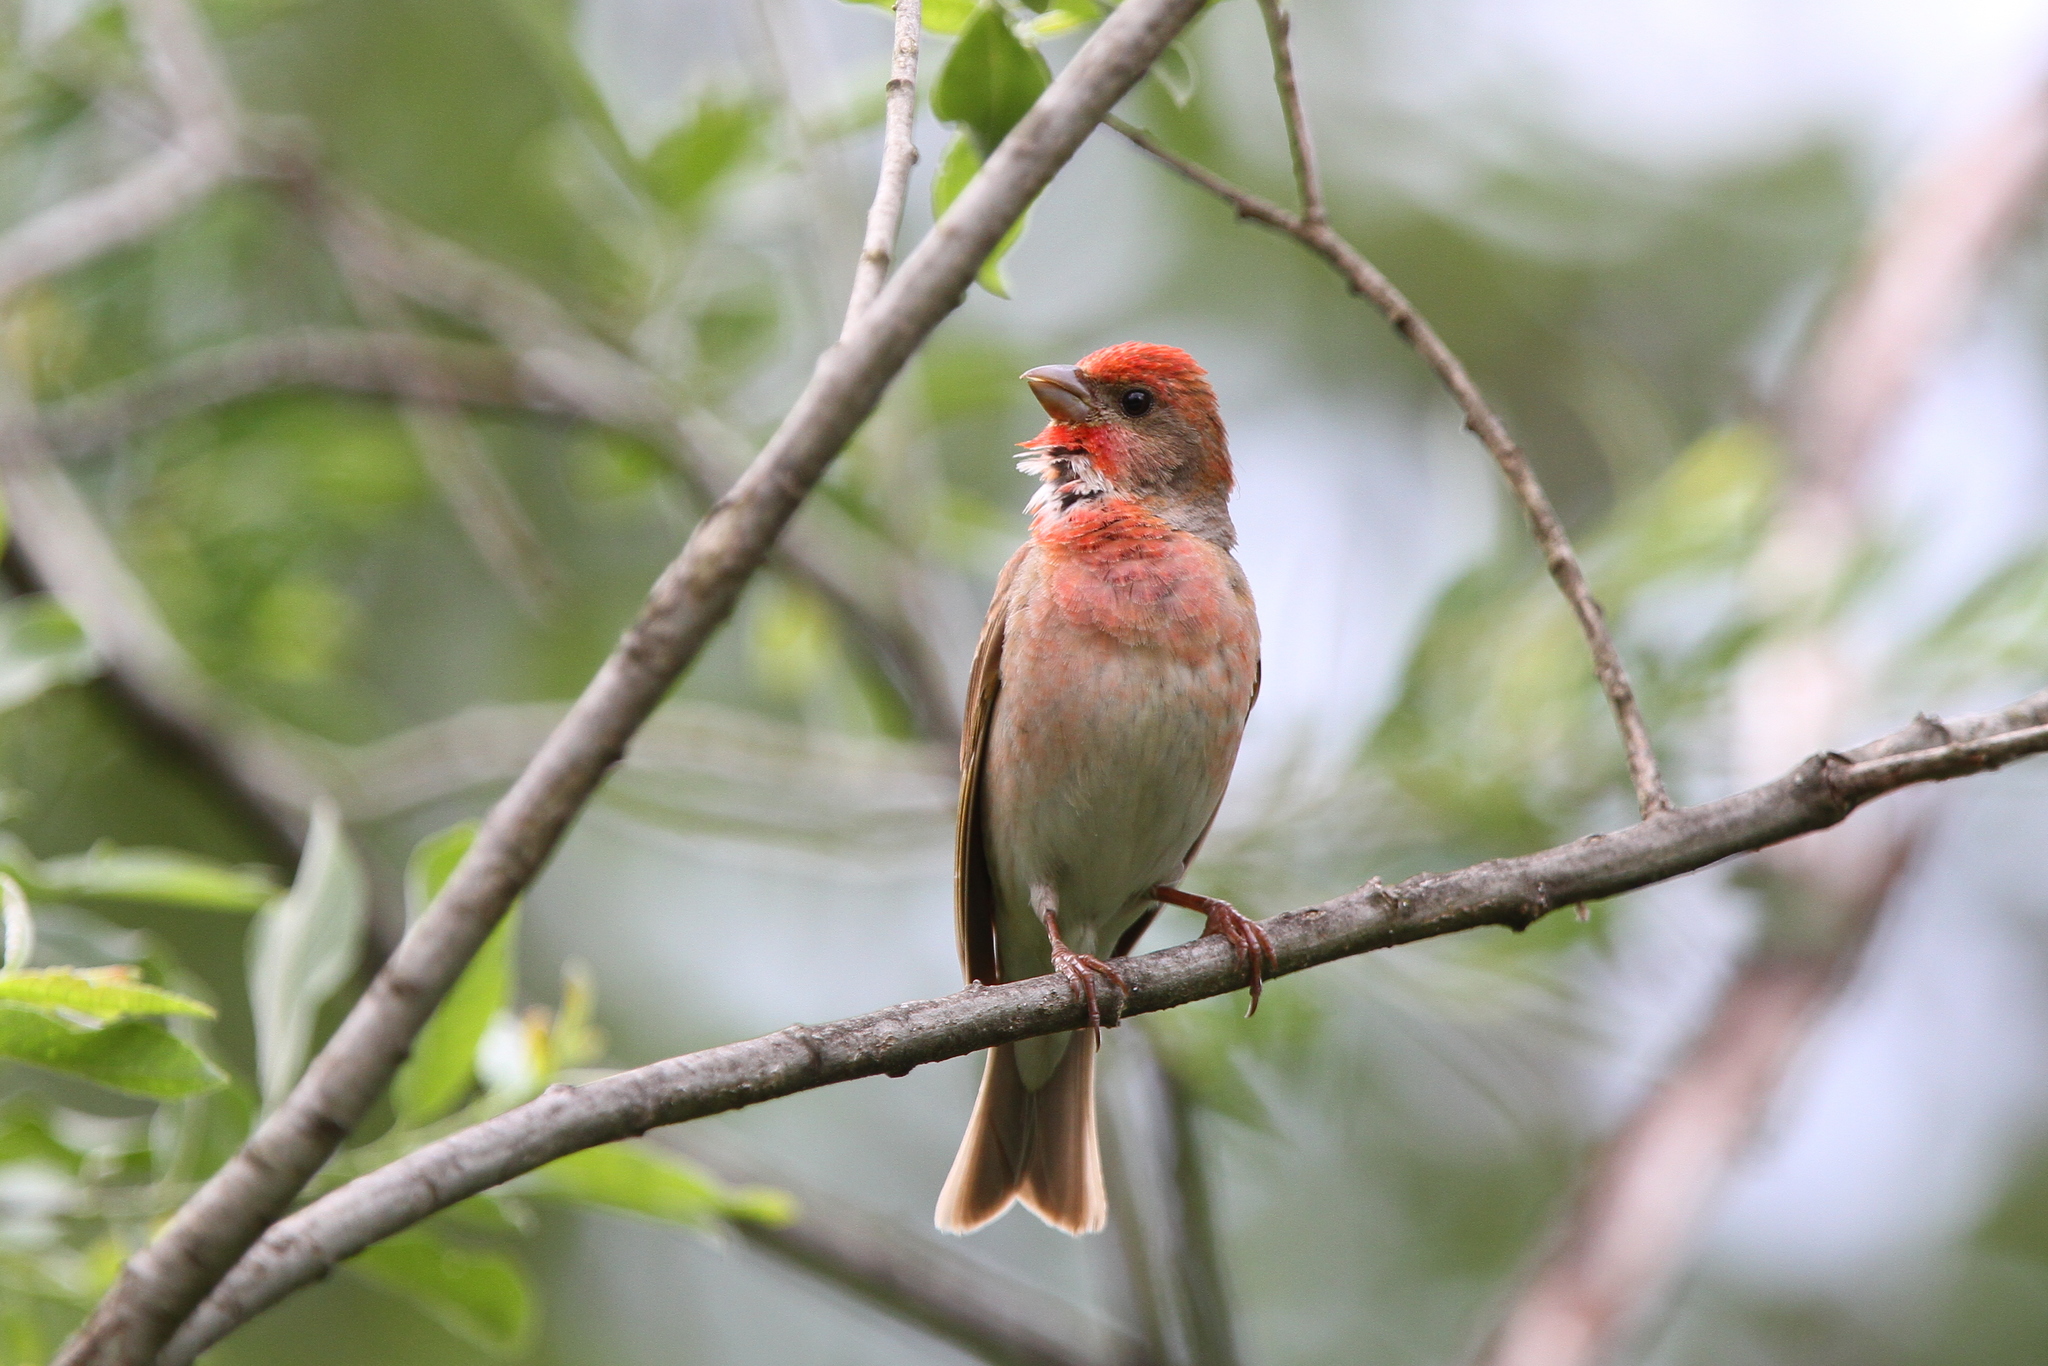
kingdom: Animalia
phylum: Chordata
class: Aves
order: Passeriformes
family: Fringillidae
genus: Carpodacus
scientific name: Carpodacus erythrinus
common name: Common rosefinch
